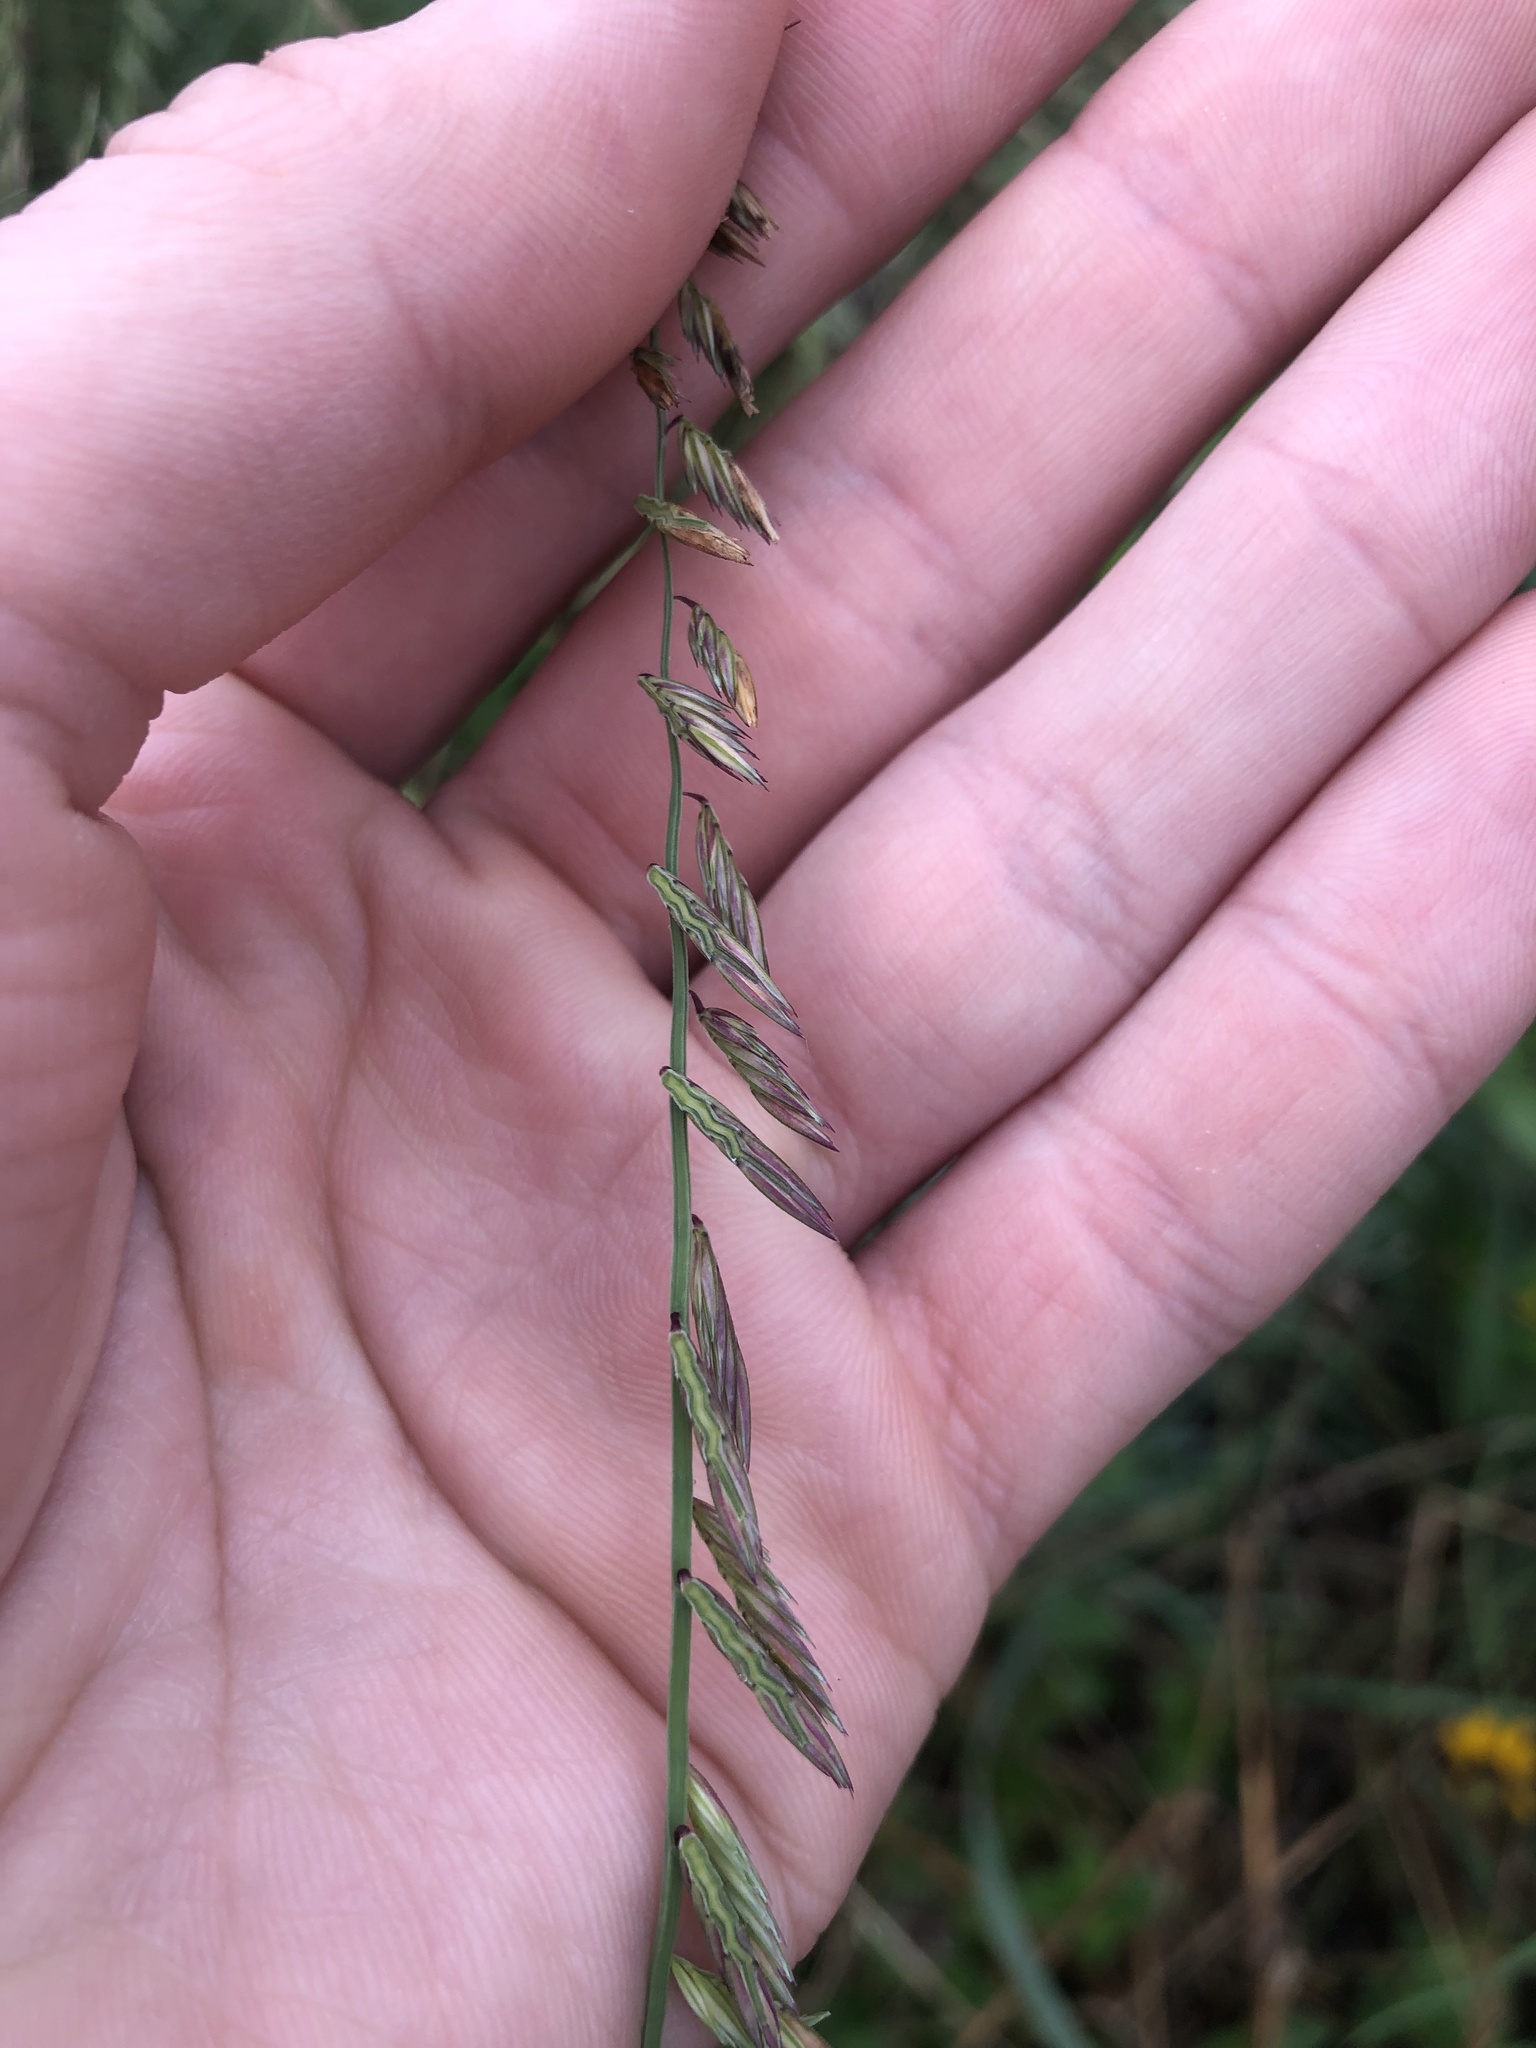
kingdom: Plantae
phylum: Tracheophyta
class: Liliopsida
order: Poales
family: Poaceae
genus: Bouteloua
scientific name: Bouteloua curtipendula
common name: Side-oats grama
